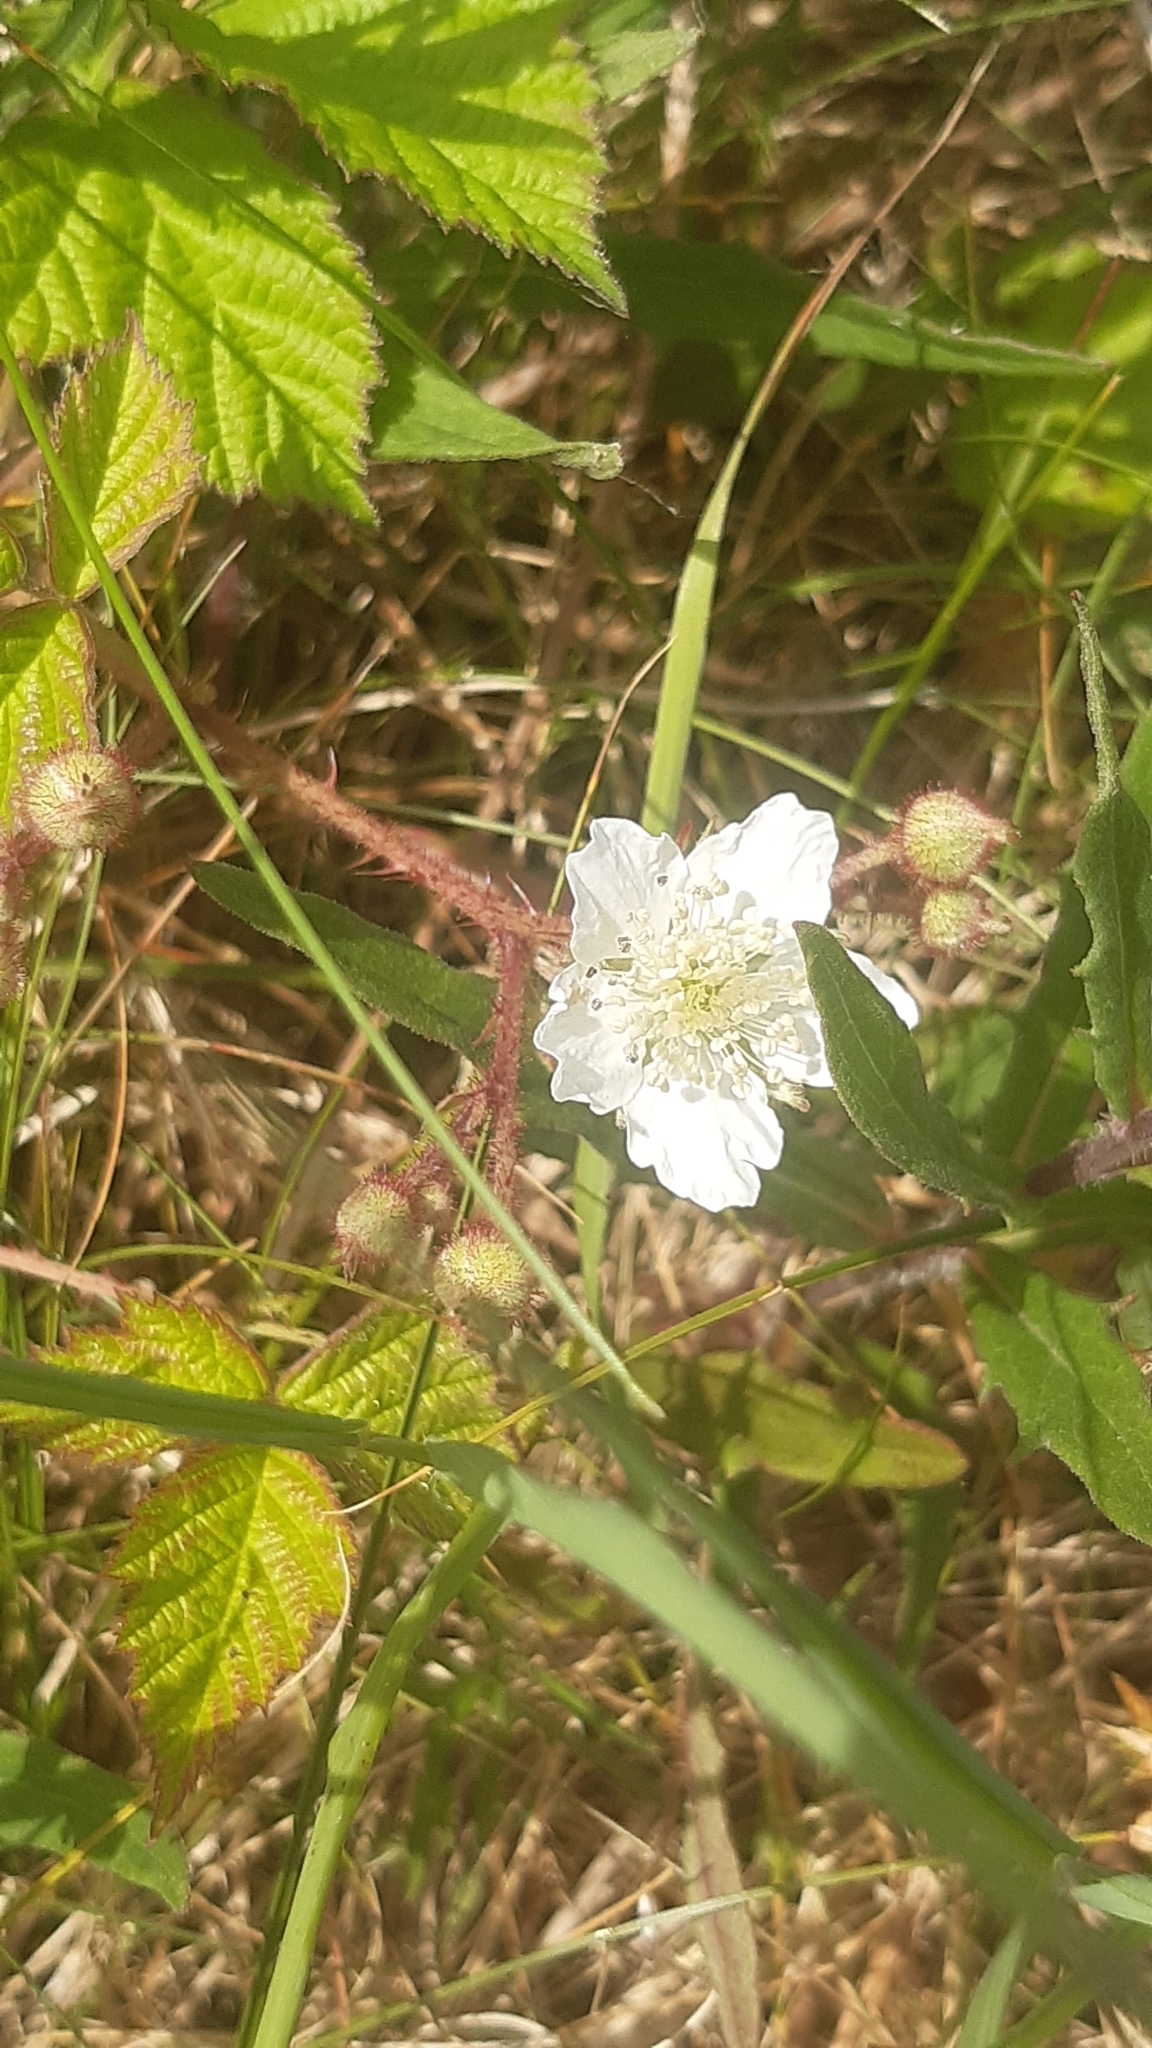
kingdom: Plantae
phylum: Tracheophyta
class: Magnoliopsida
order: Rosales
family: Rosaceae
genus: Rubus
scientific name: Rubus caesius
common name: Dewberry
